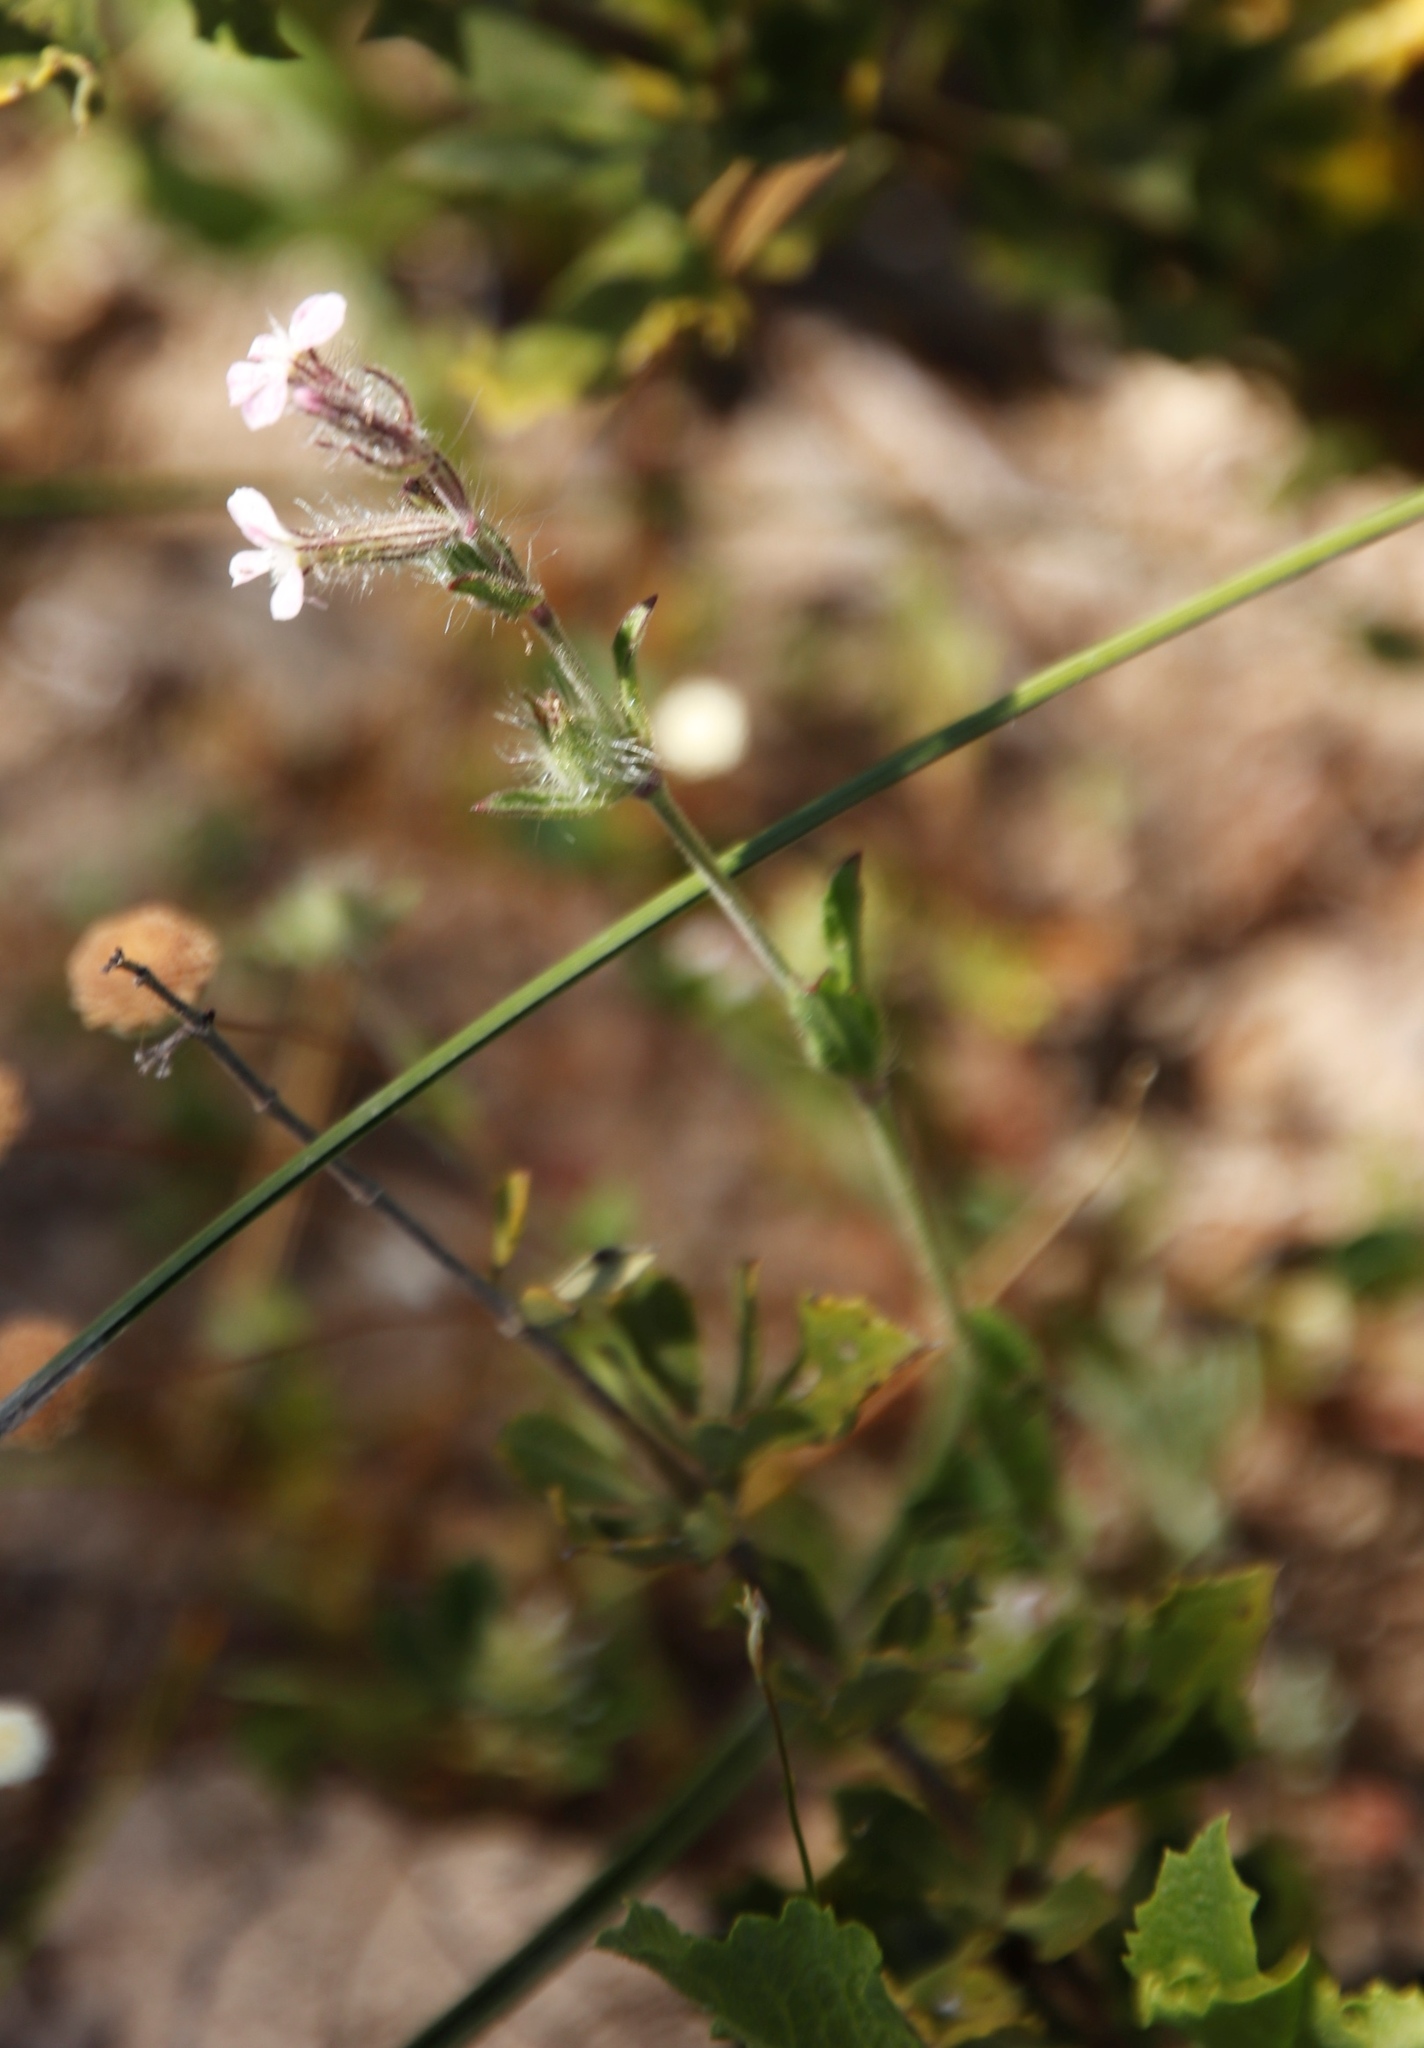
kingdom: Plantae
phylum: Tracheophyta
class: Magnoliopsida
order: Caryophyllales
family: Caryophyllaceae
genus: Silene
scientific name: Silene gallica
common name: Small-flowered catchfly
